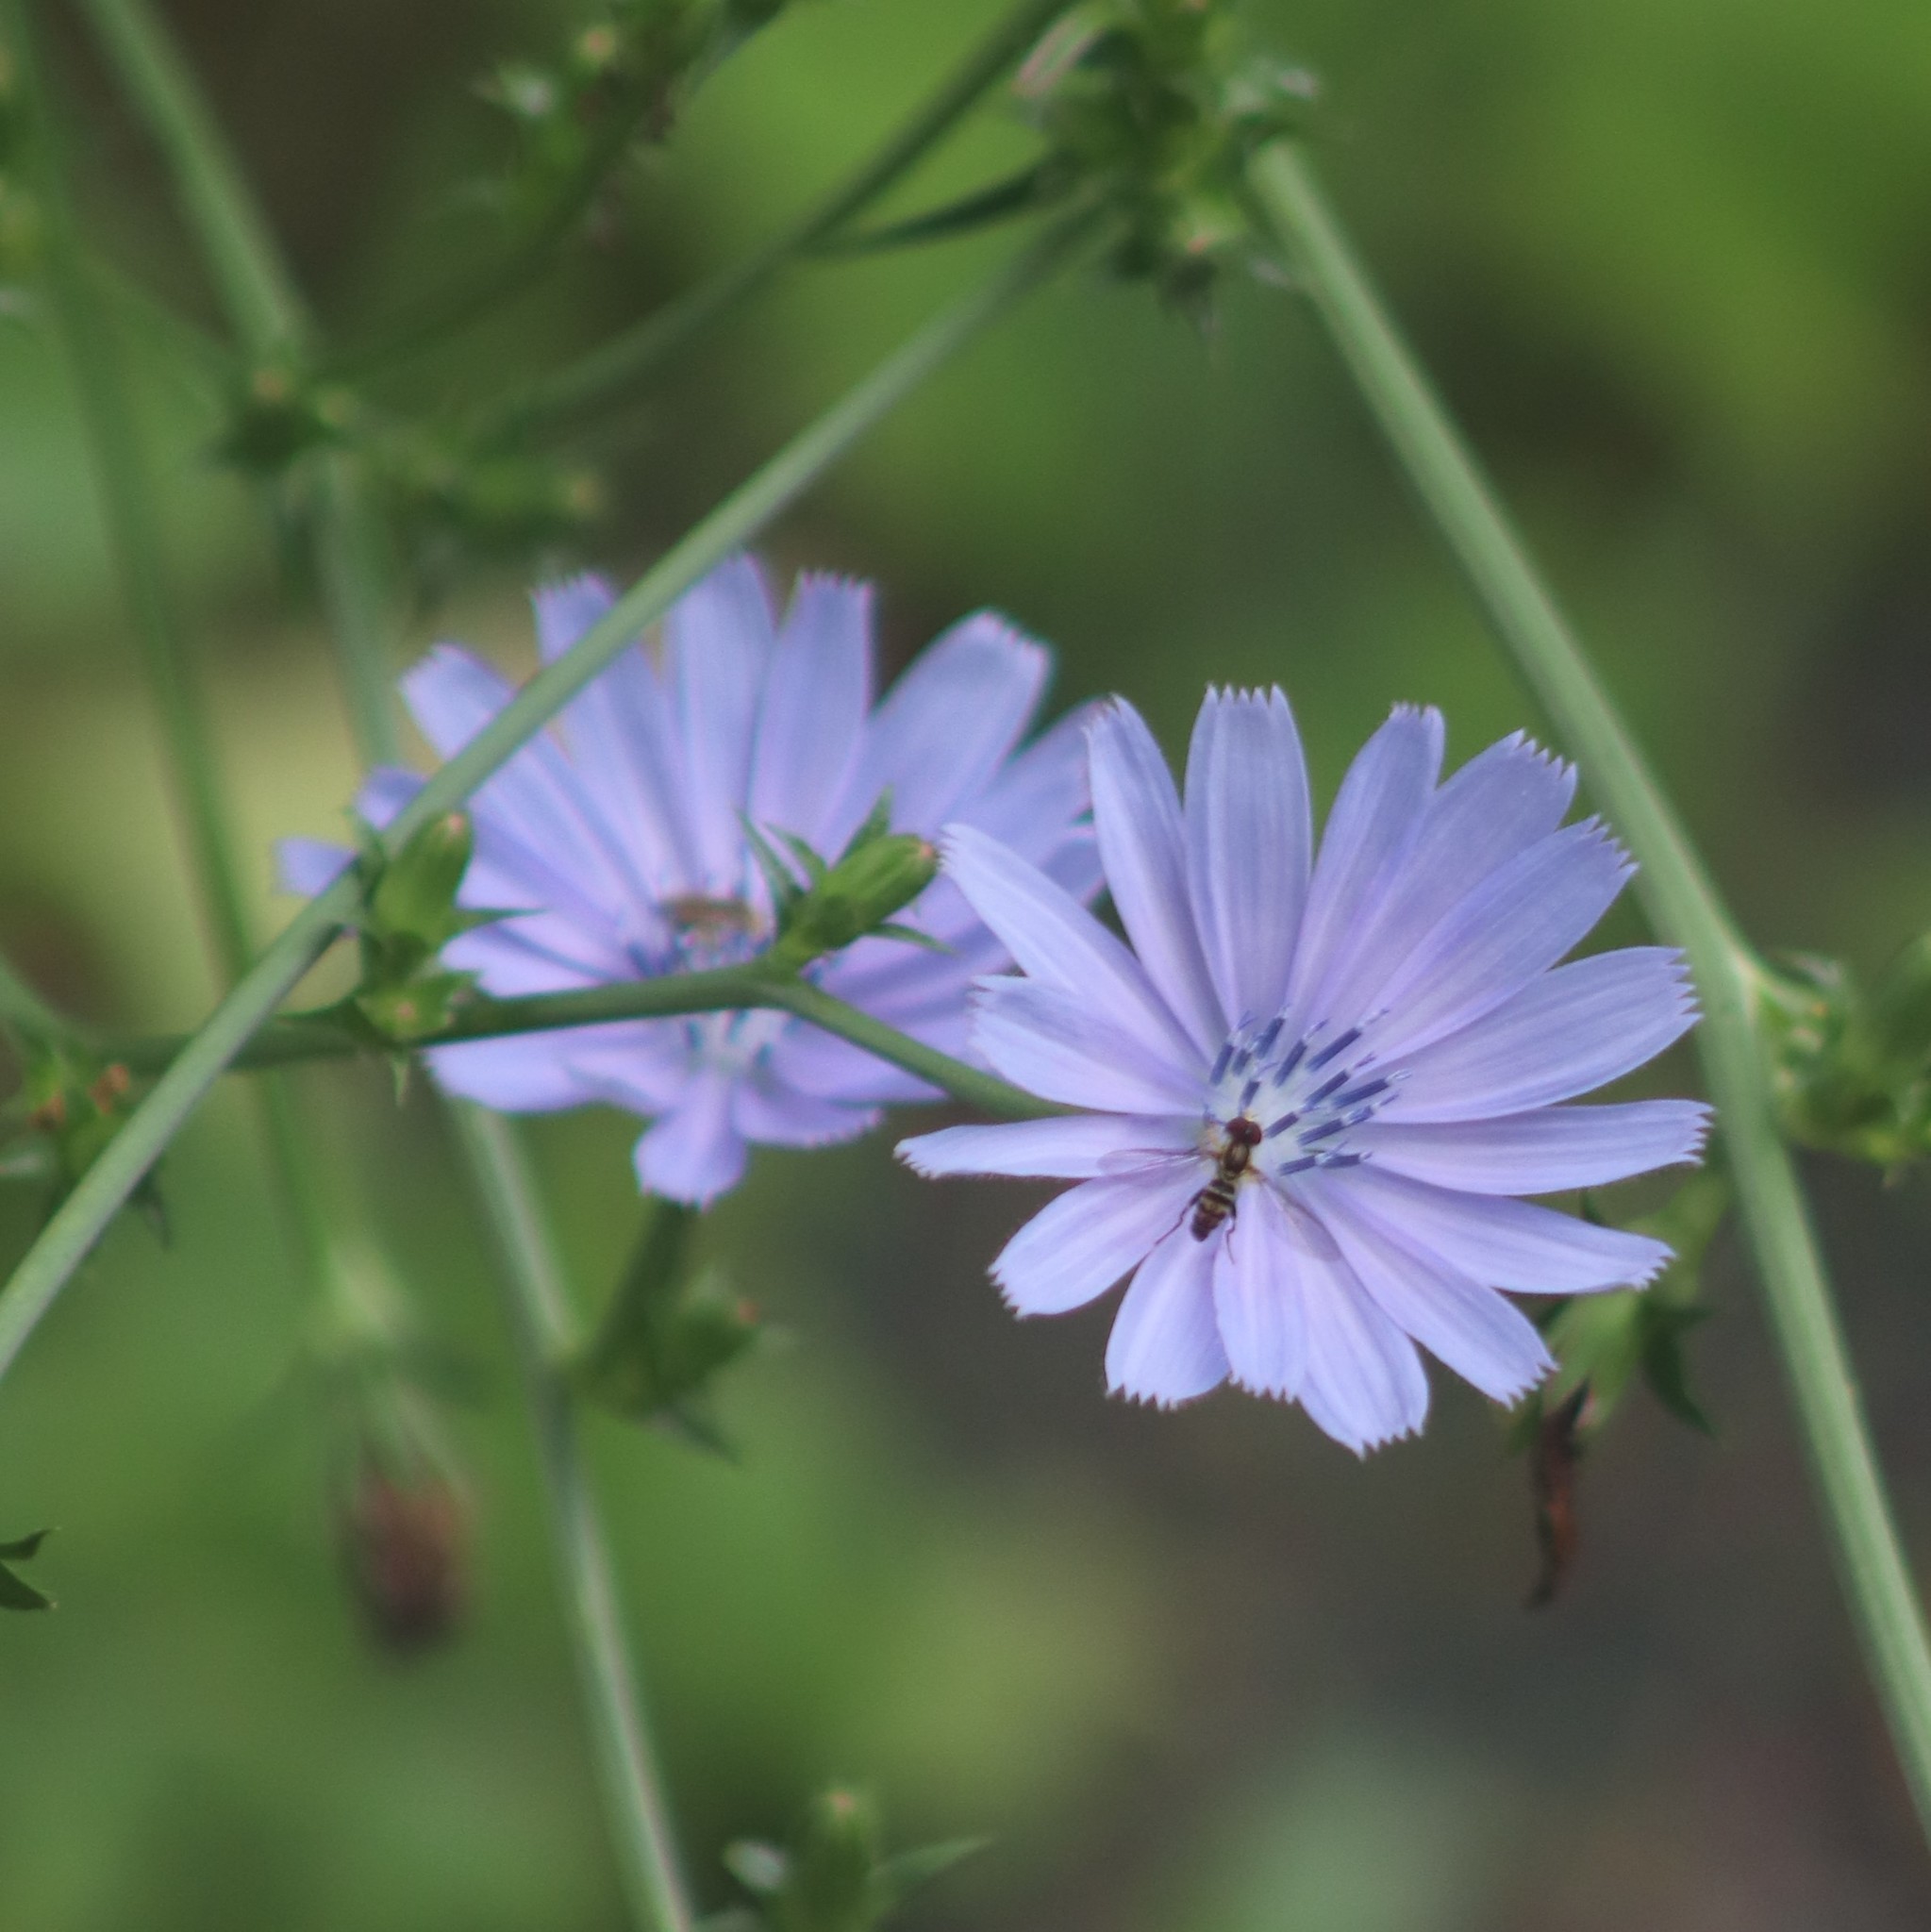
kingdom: Plantae
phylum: Tracheophyta
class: Magnoliopsida
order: Asterales
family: Asteraceae
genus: Cichorium
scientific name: Cichorium intybus
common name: Chicory
